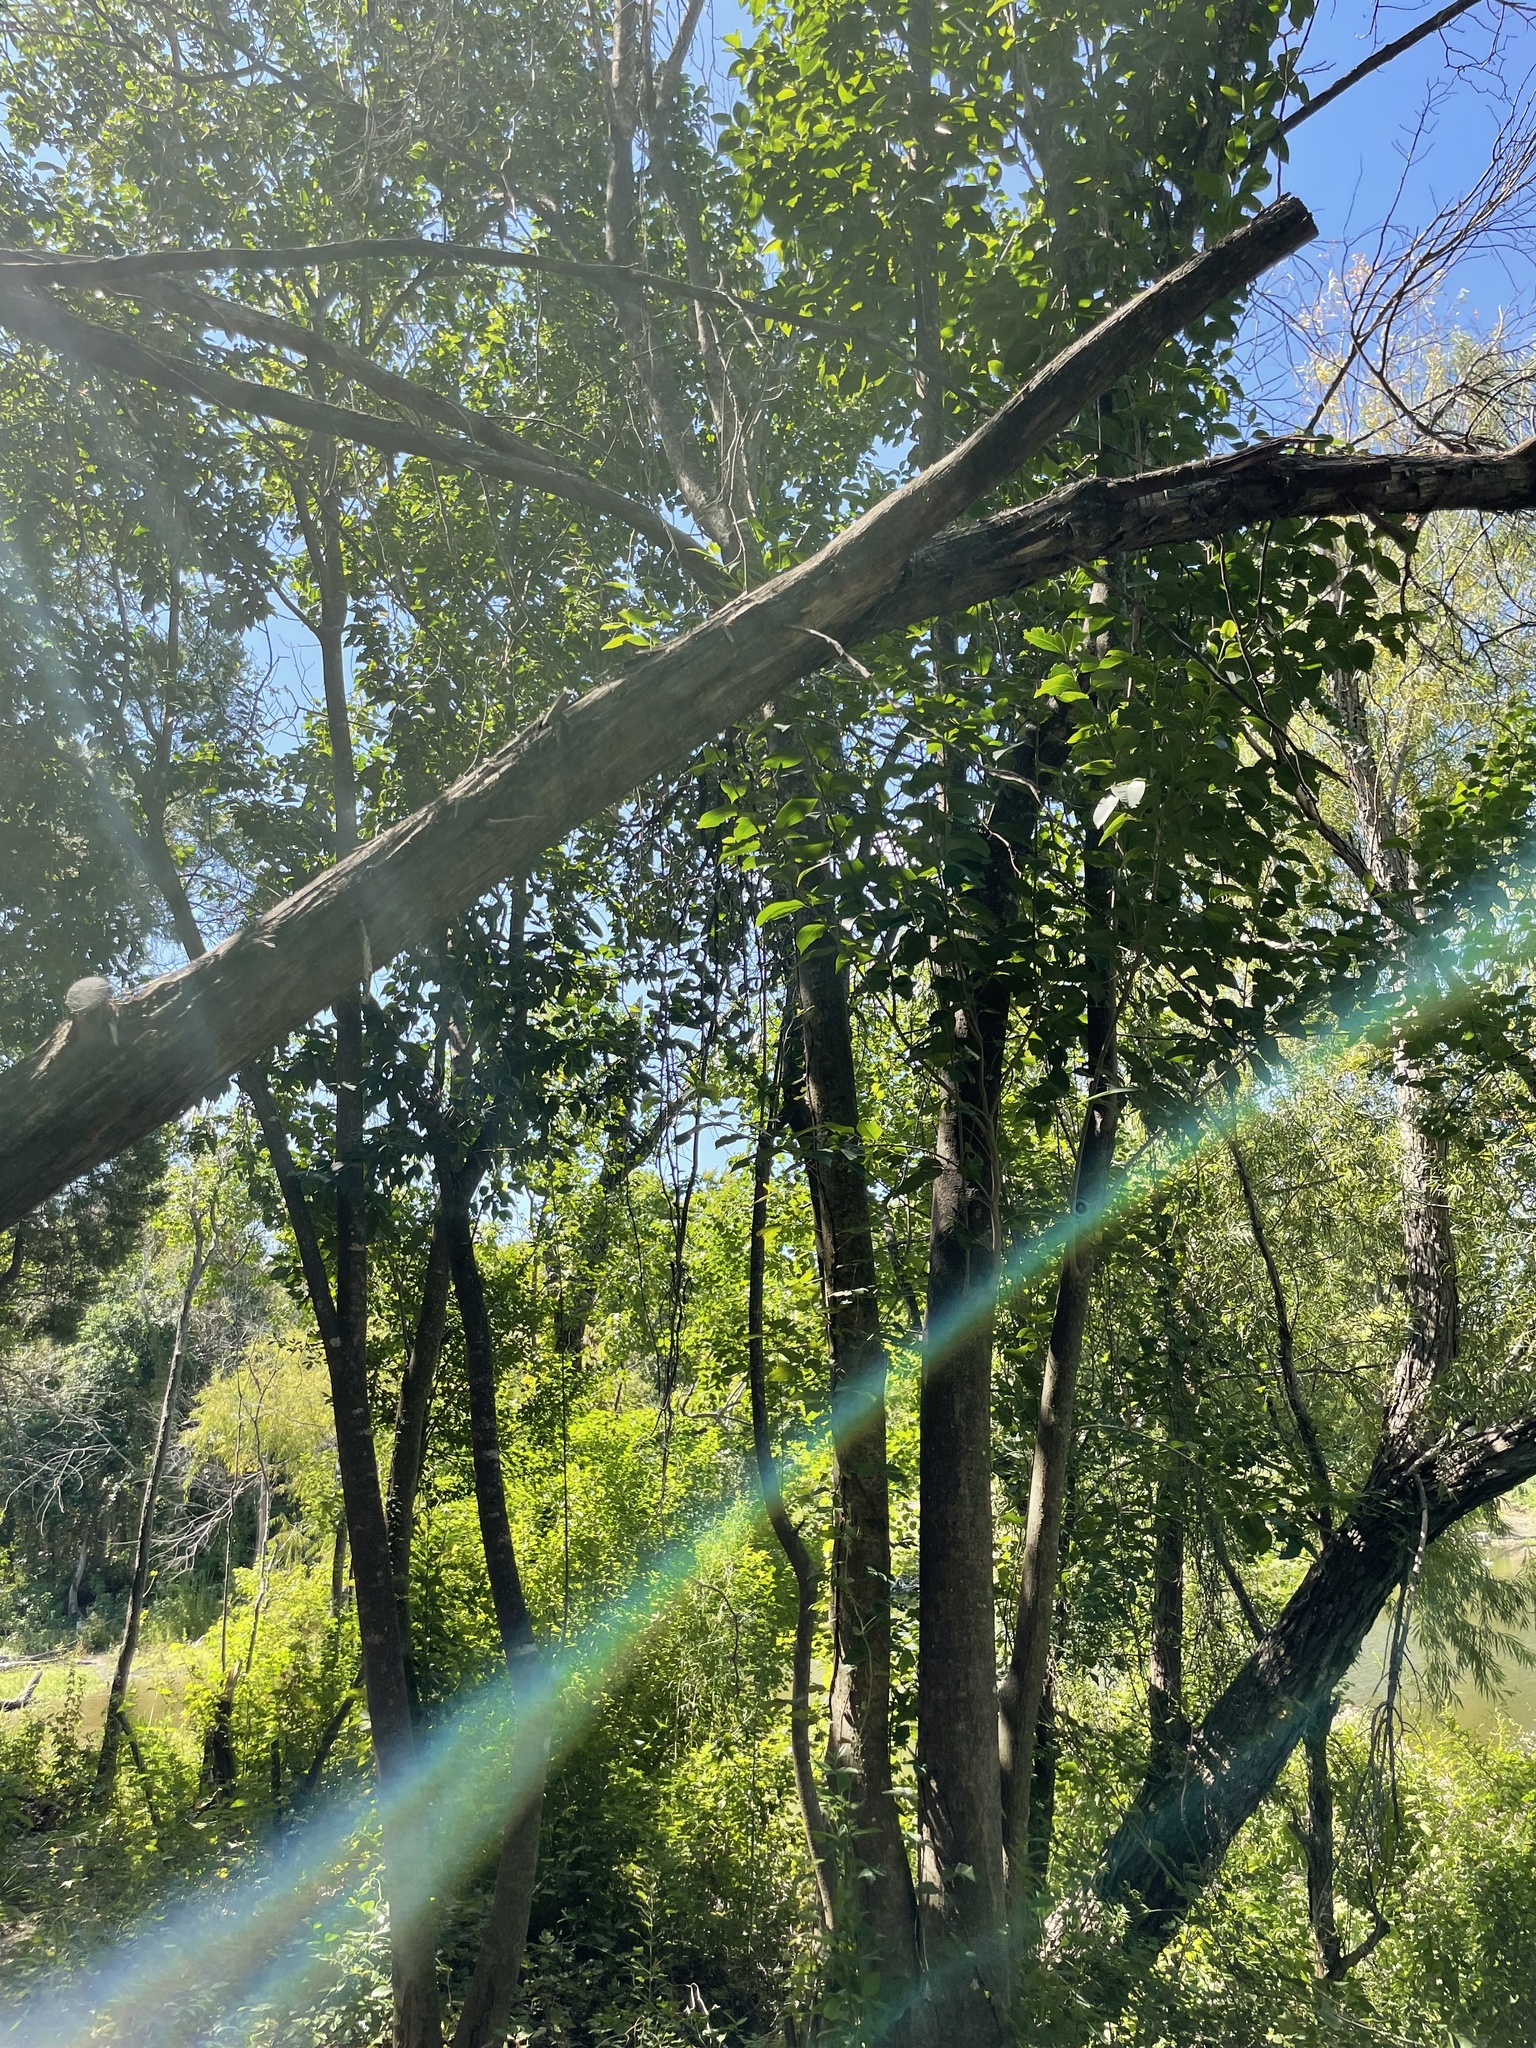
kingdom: Plantae
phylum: Tracheophyta
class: Magnoliopsida
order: Lamiales
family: Oleaceae
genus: Ligustrum
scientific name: Ligustrum lucidum
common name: Glossy privet
